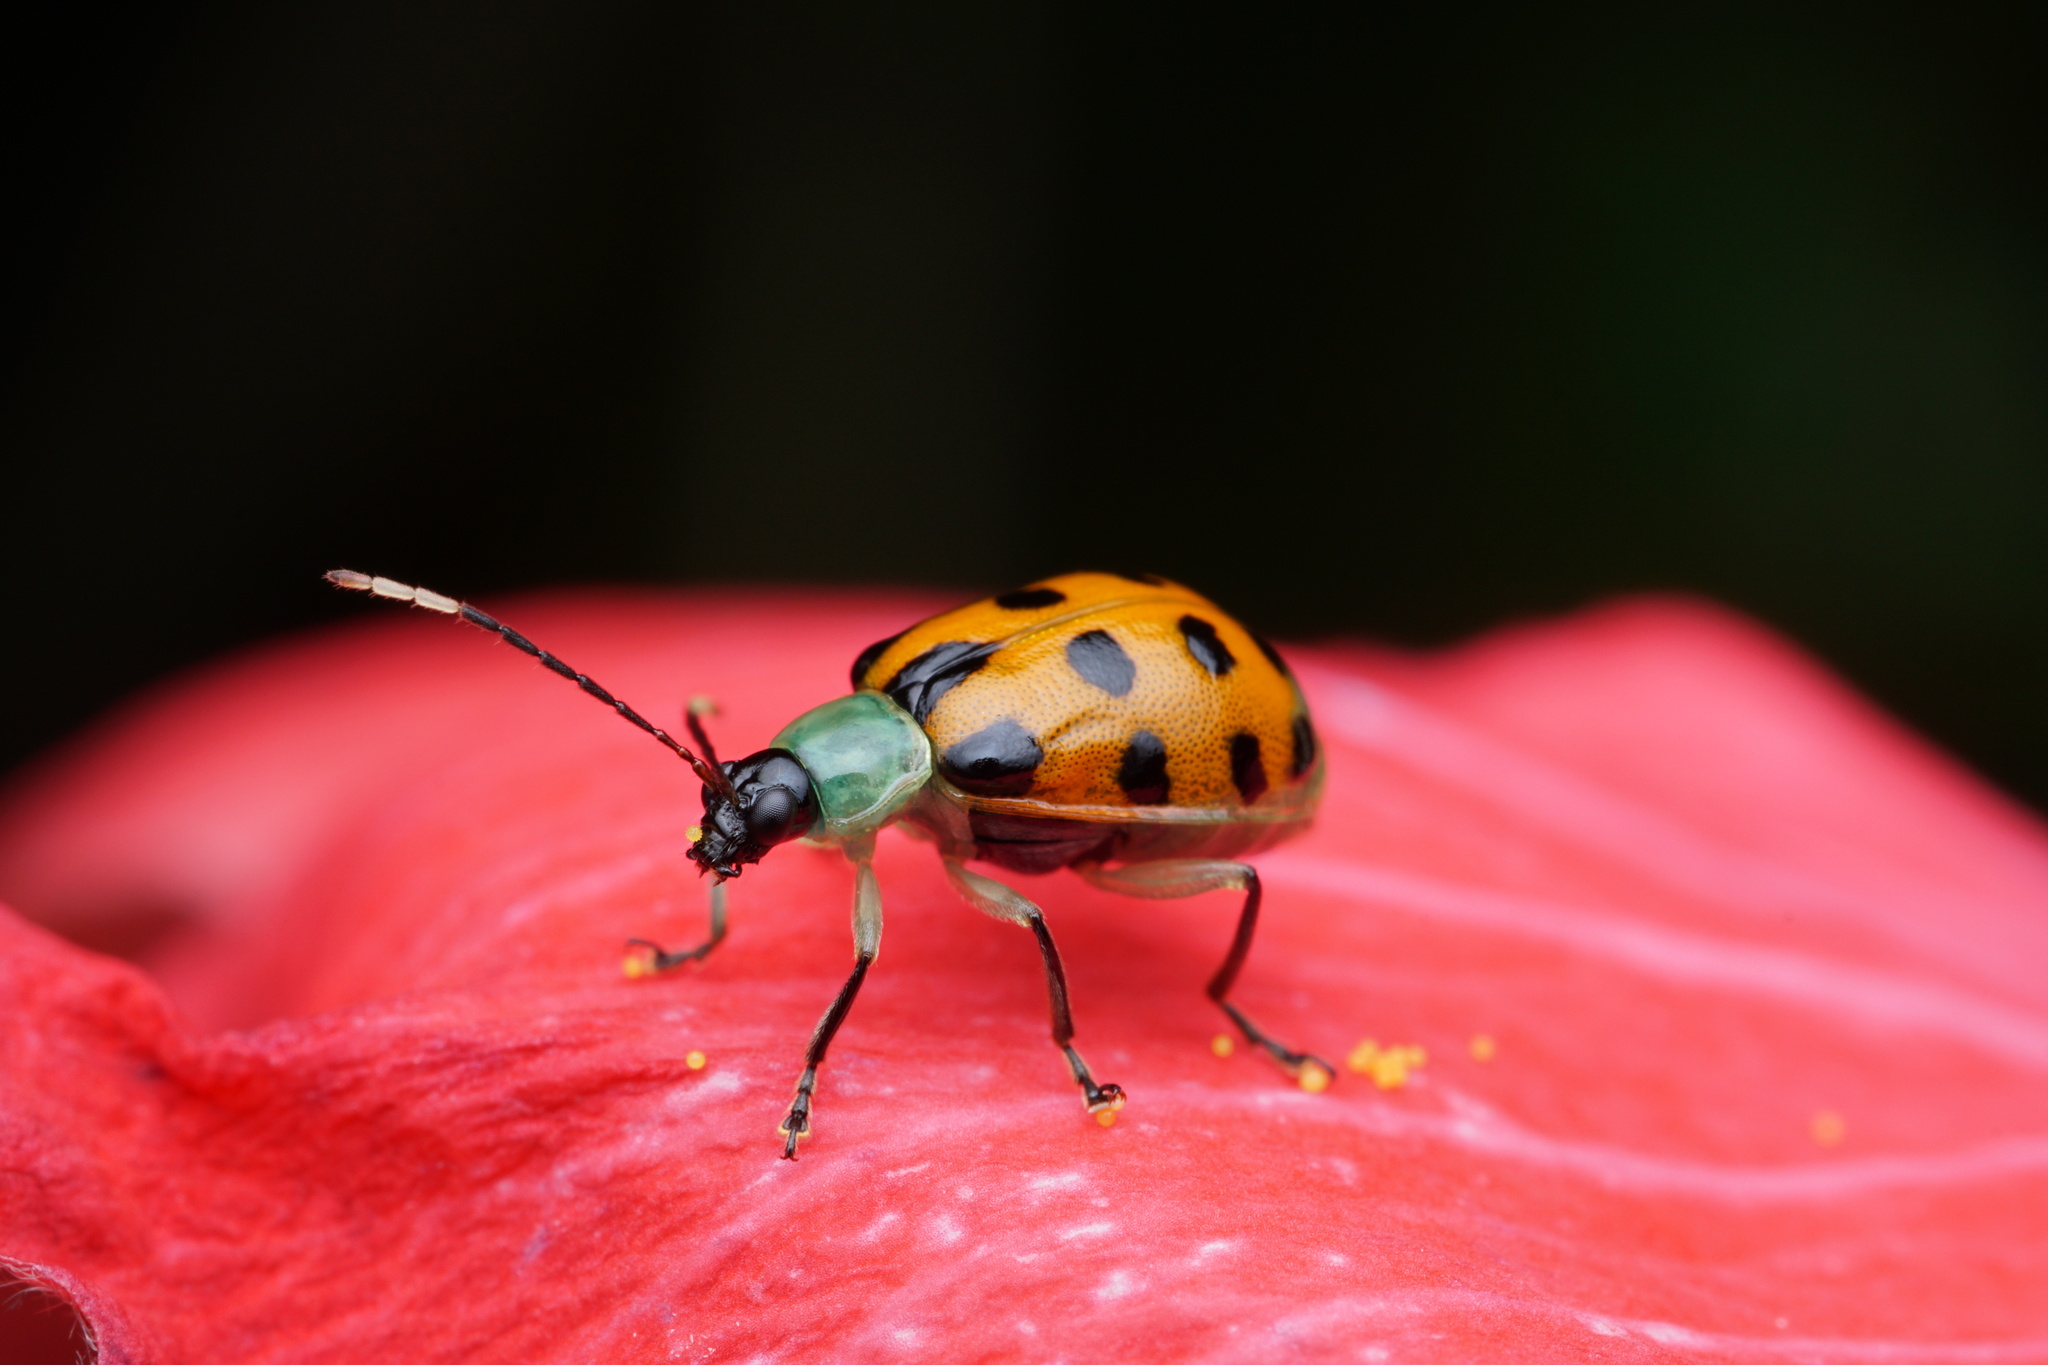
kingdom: Animalia
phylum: Arthropoda
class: Insecta
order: Coleoptera
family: Chrysomelidae
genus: Diabrotica
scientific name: Diabrotica limitata
